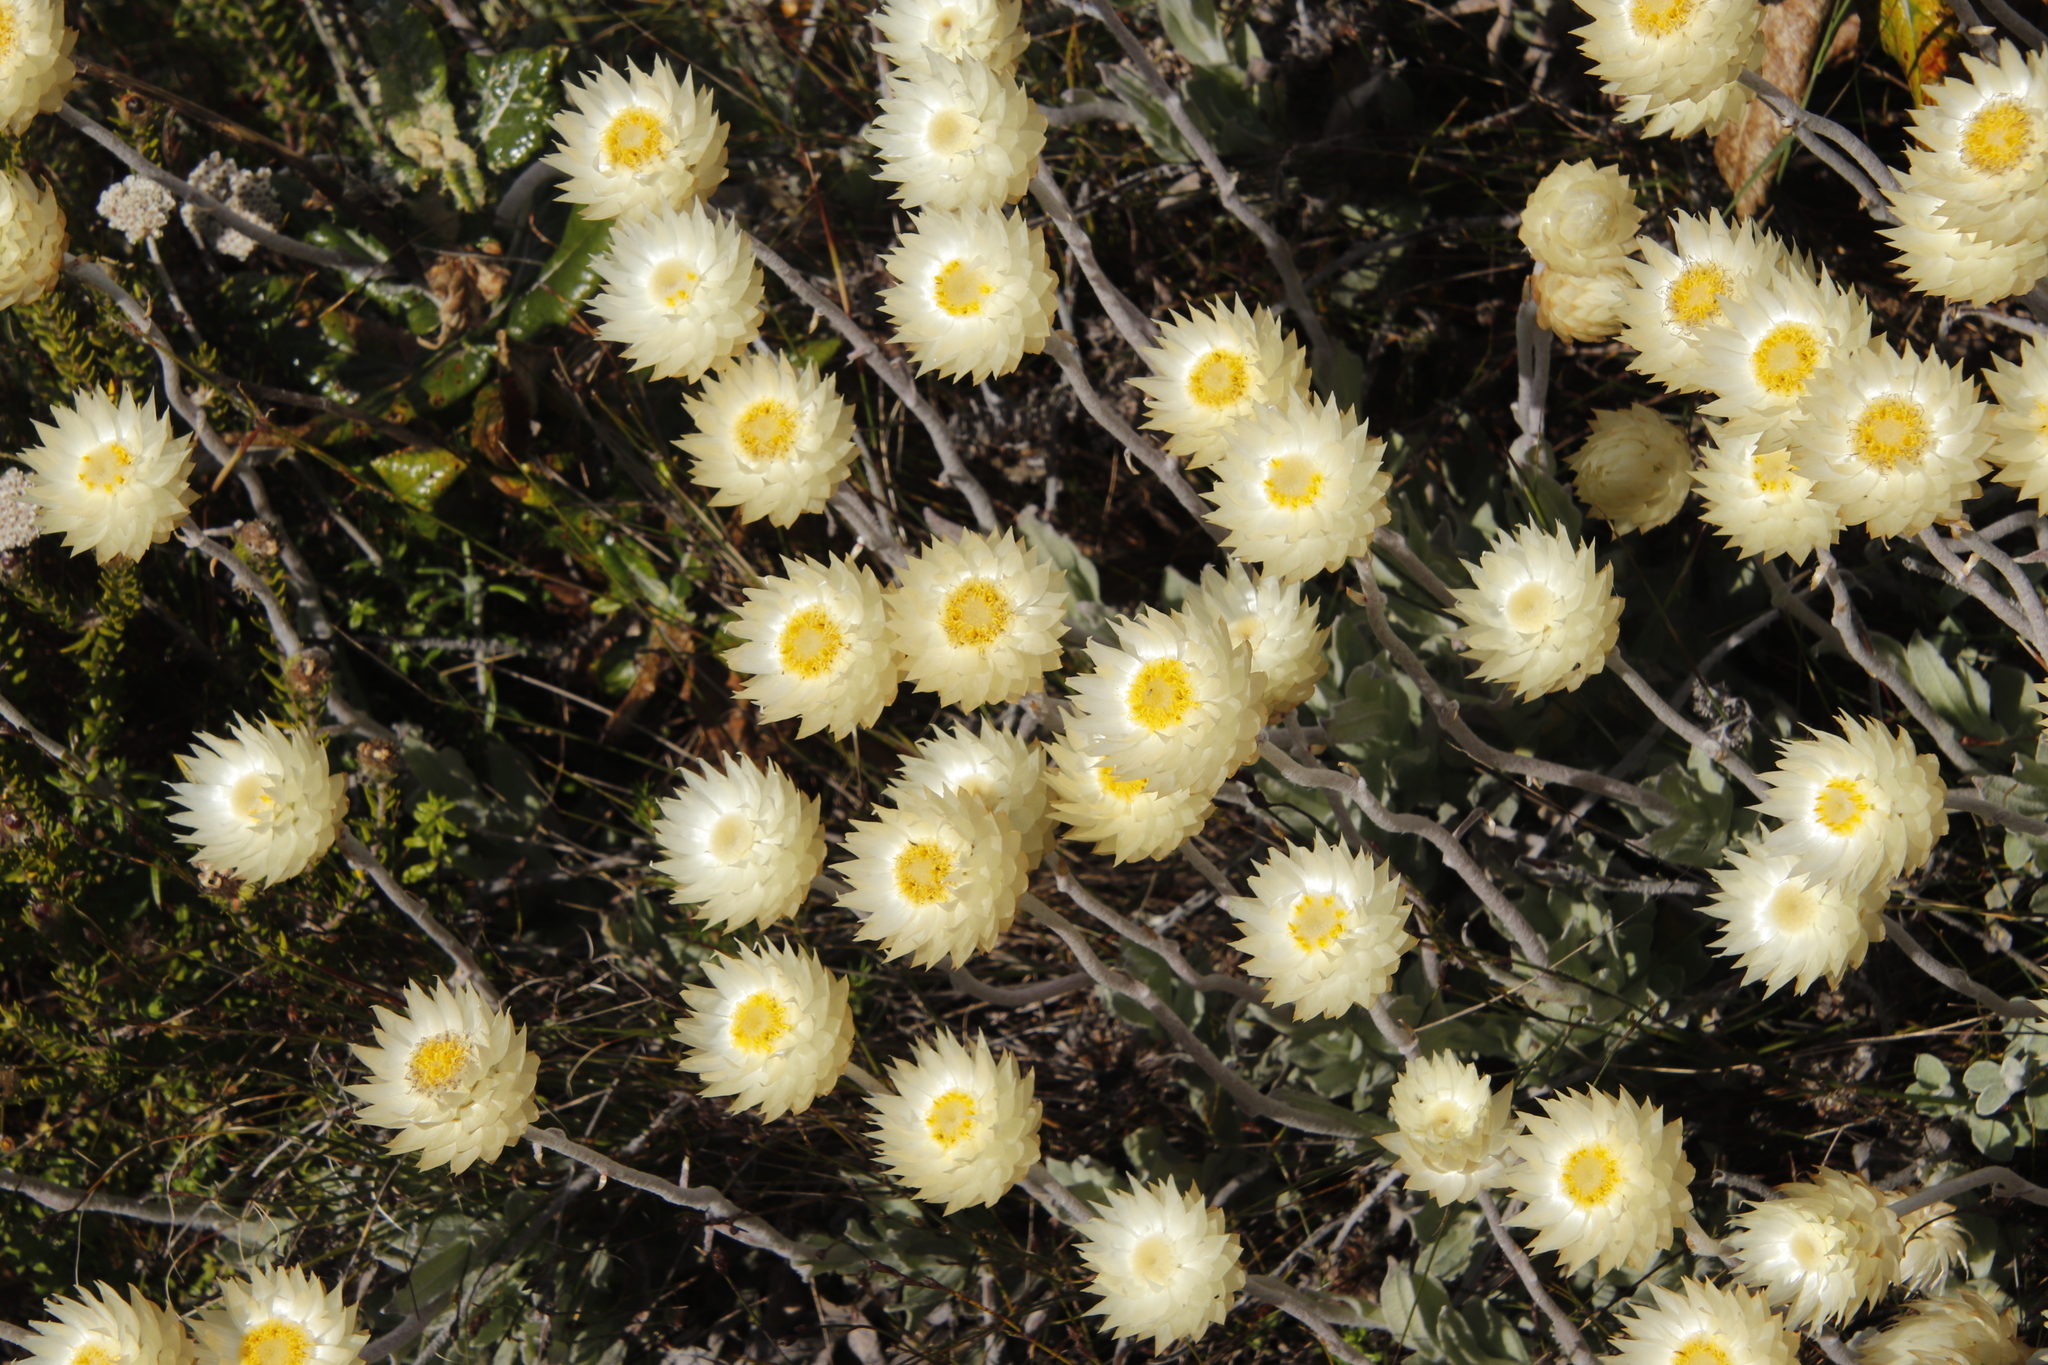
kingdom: Plantae
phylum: Tracheophyta
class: Magnoliopsida
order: Asterales
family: Asteraceae
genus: Syncarpha
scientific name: Syncarpha speciosissima
